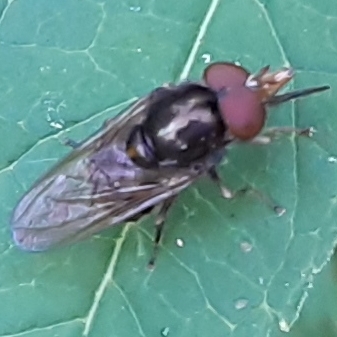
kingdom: Animalia
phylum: Arthropoda
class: Insecta
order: Diptera
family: Syrphidae
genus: Rhingia
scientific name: Rhingia nasica
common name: American snout fly
